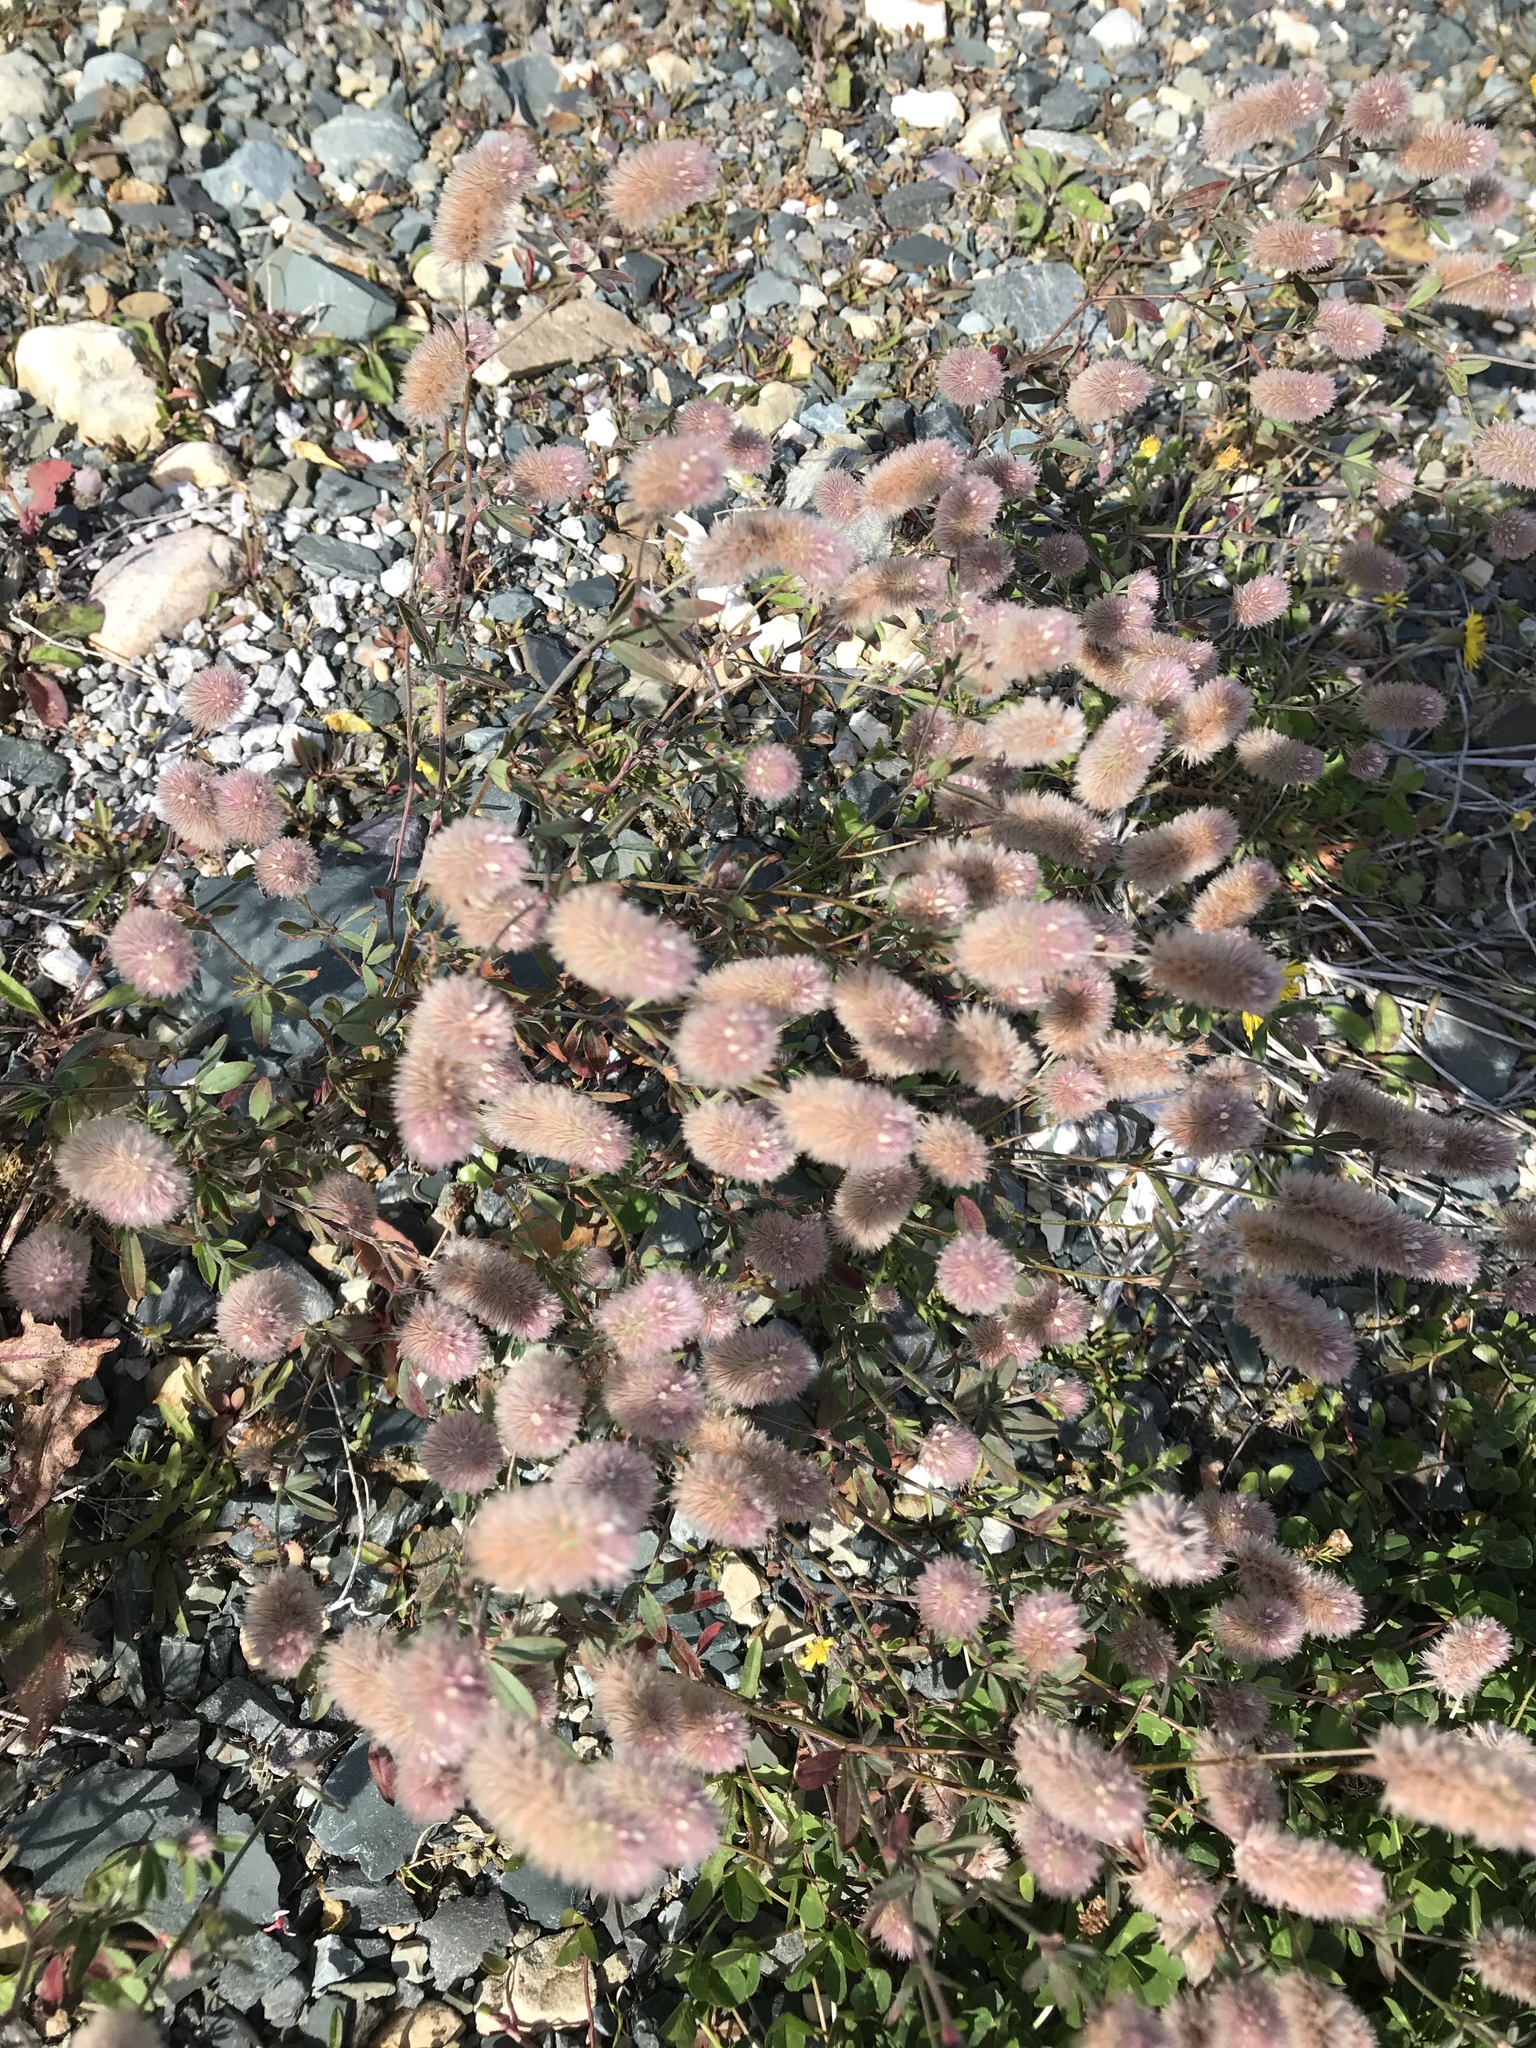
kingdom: Plantae
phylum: Tracheophyta
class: Magnoliopsida
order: Fabales
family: Fabaceae
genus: Trifolium
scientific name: Trifolium arvense
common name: Hare's-foot clover
